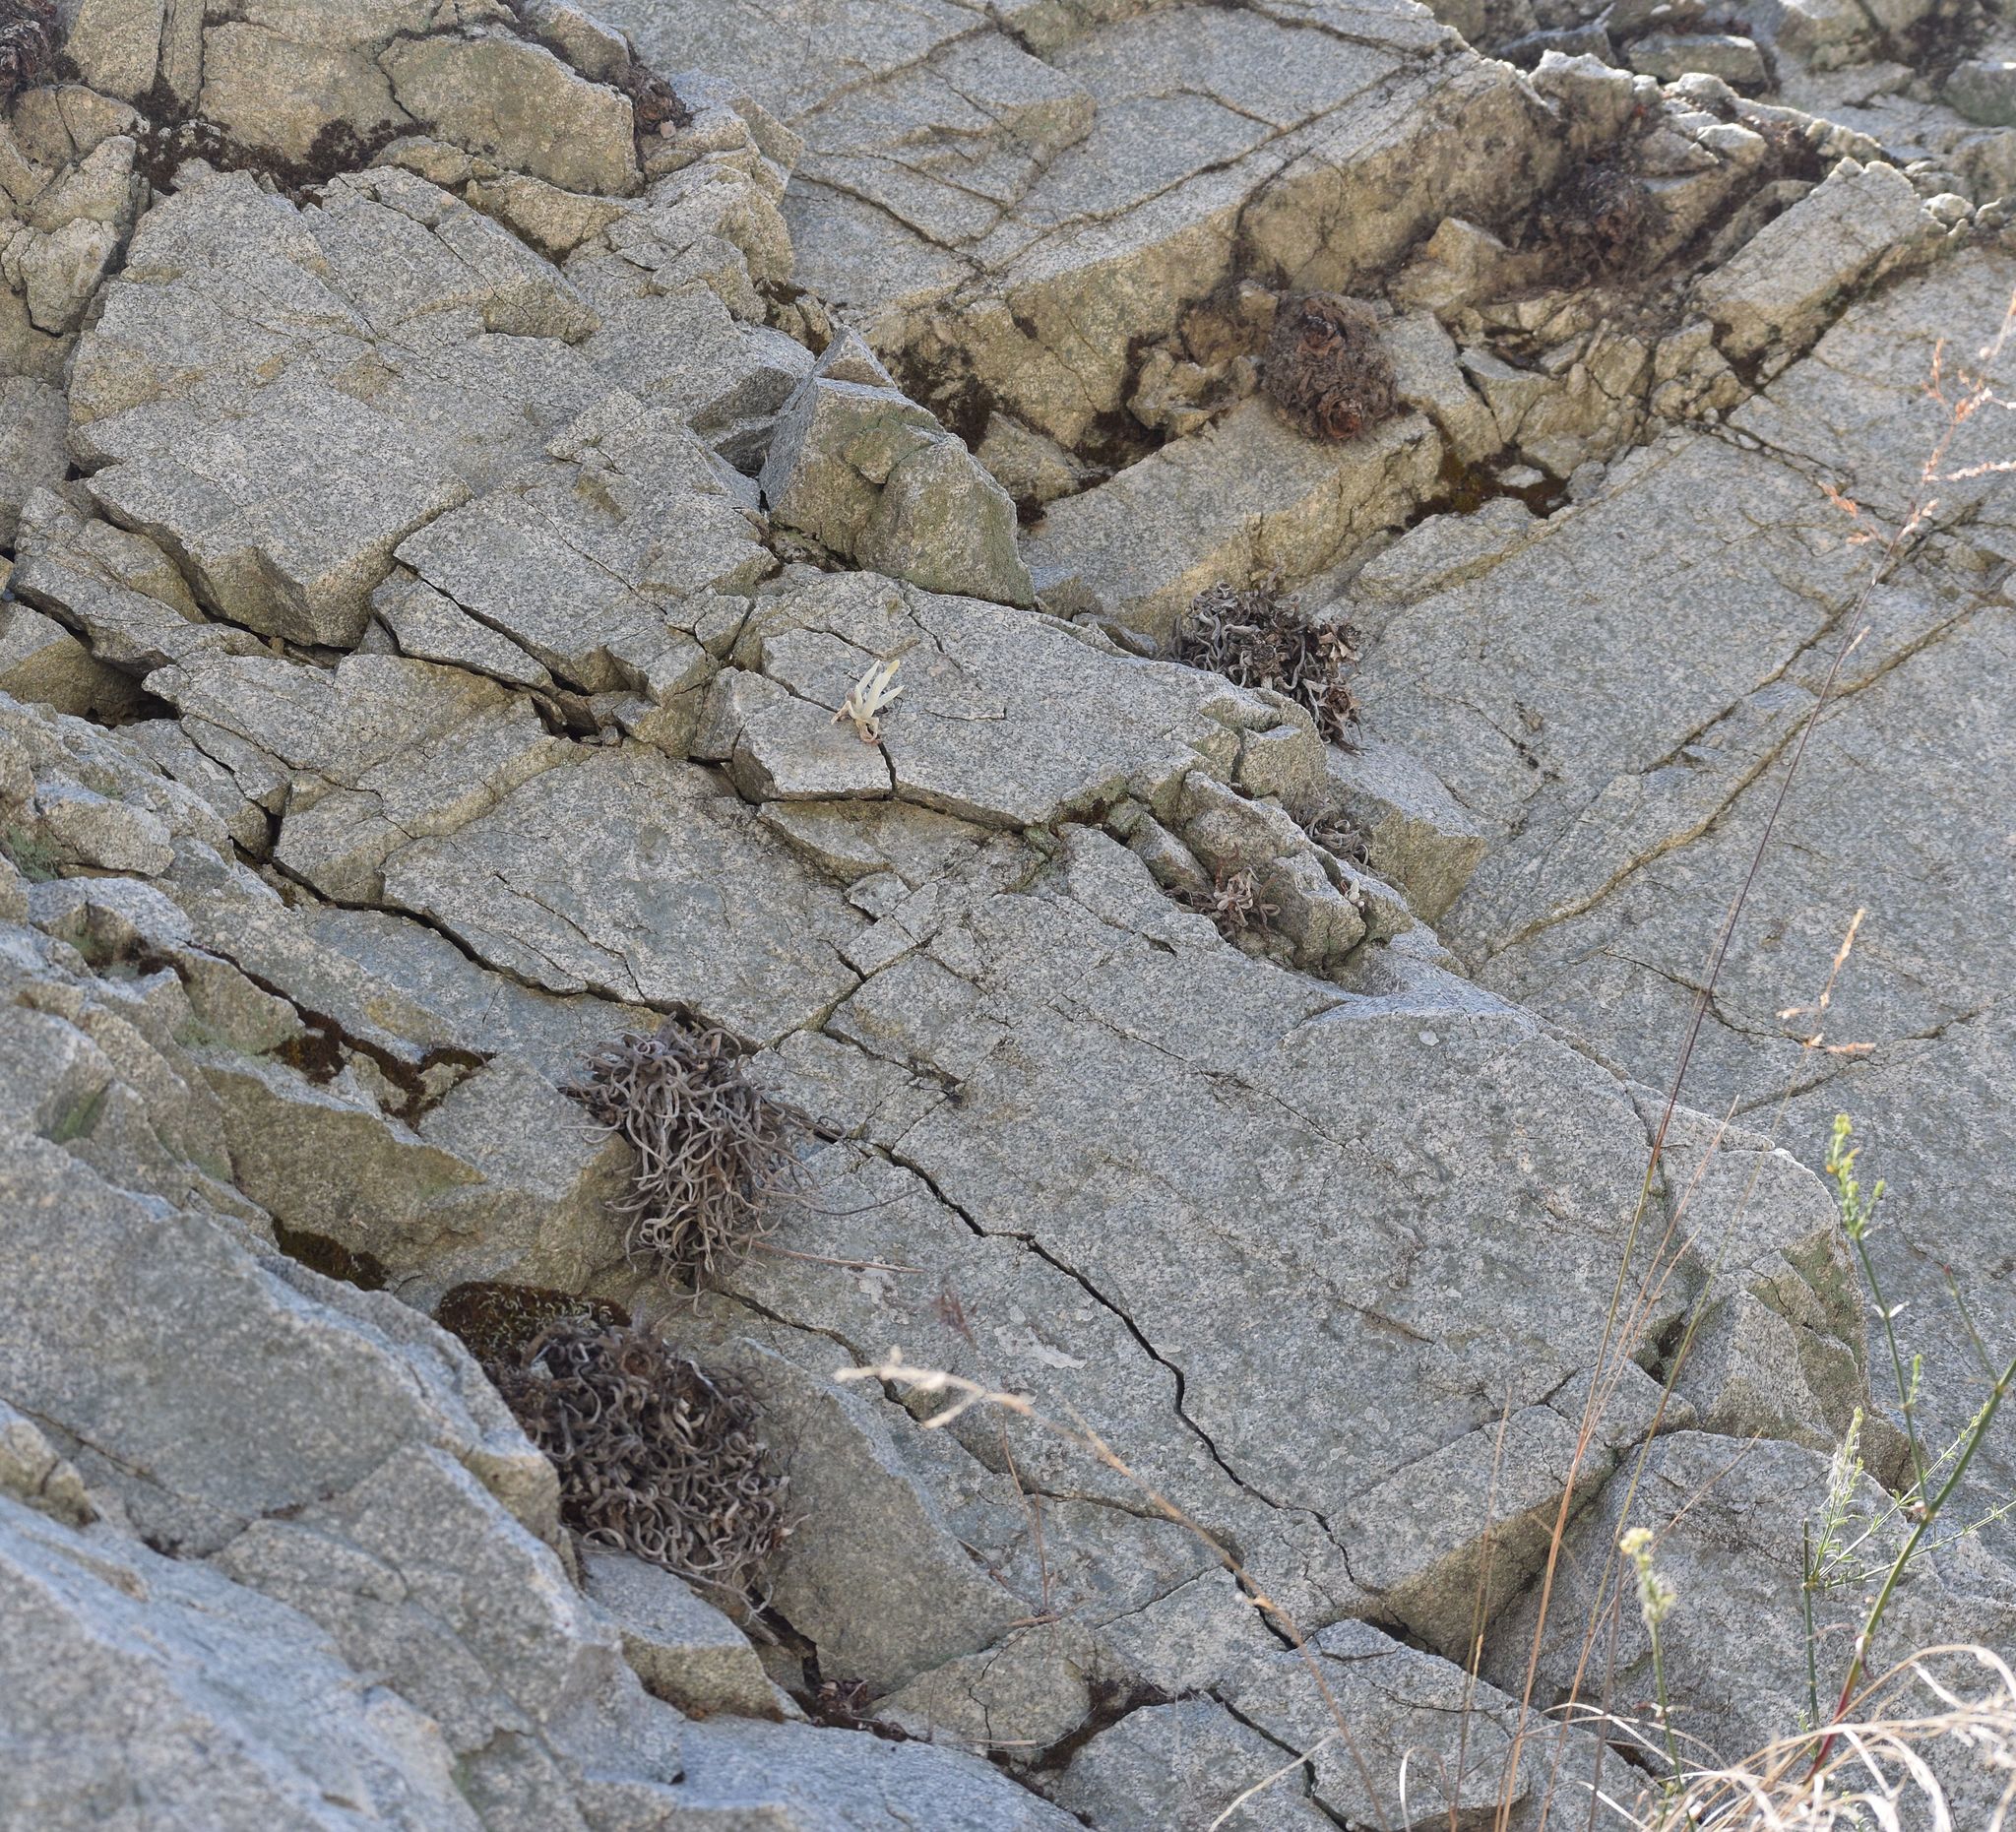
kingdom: Plantae
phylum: Tracheophyta
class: Magnoliopsida
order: Saxifragales
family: Crassulaceae
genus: Dudleya
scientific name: Dudleya densiflora
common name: San gabriel mountains dudleya
